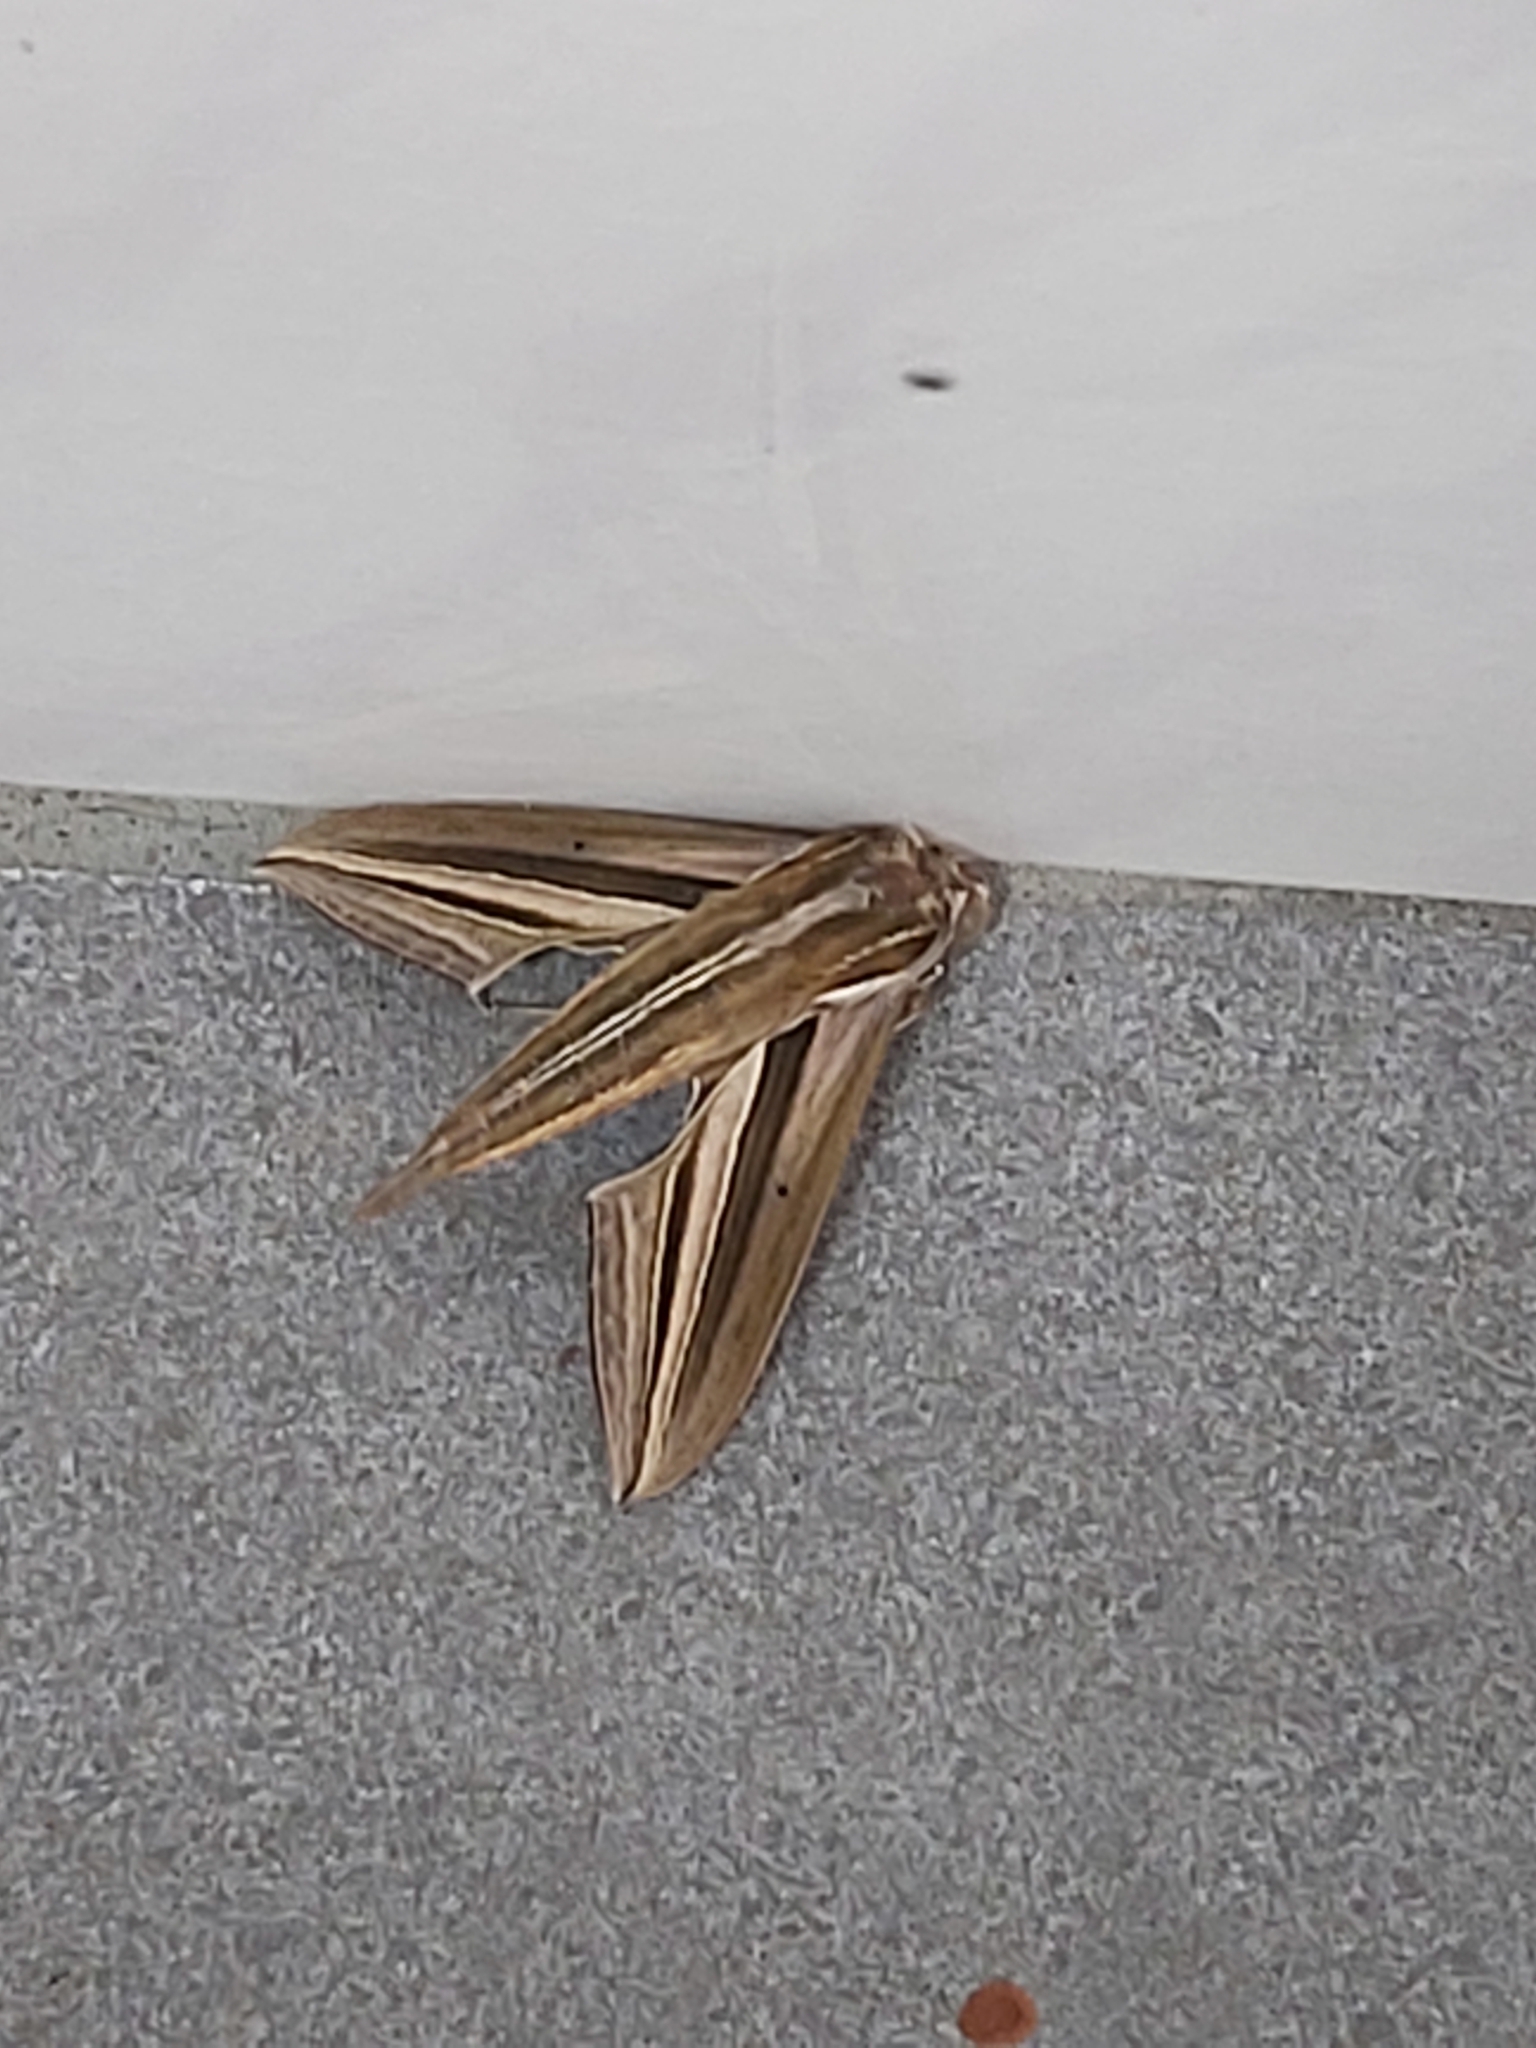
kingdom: Animalia
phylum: Arthropoda
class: Insecta
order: Lepidoptera
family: Sphingidae
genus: Theretra
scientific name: Theretra oldenlandiae
